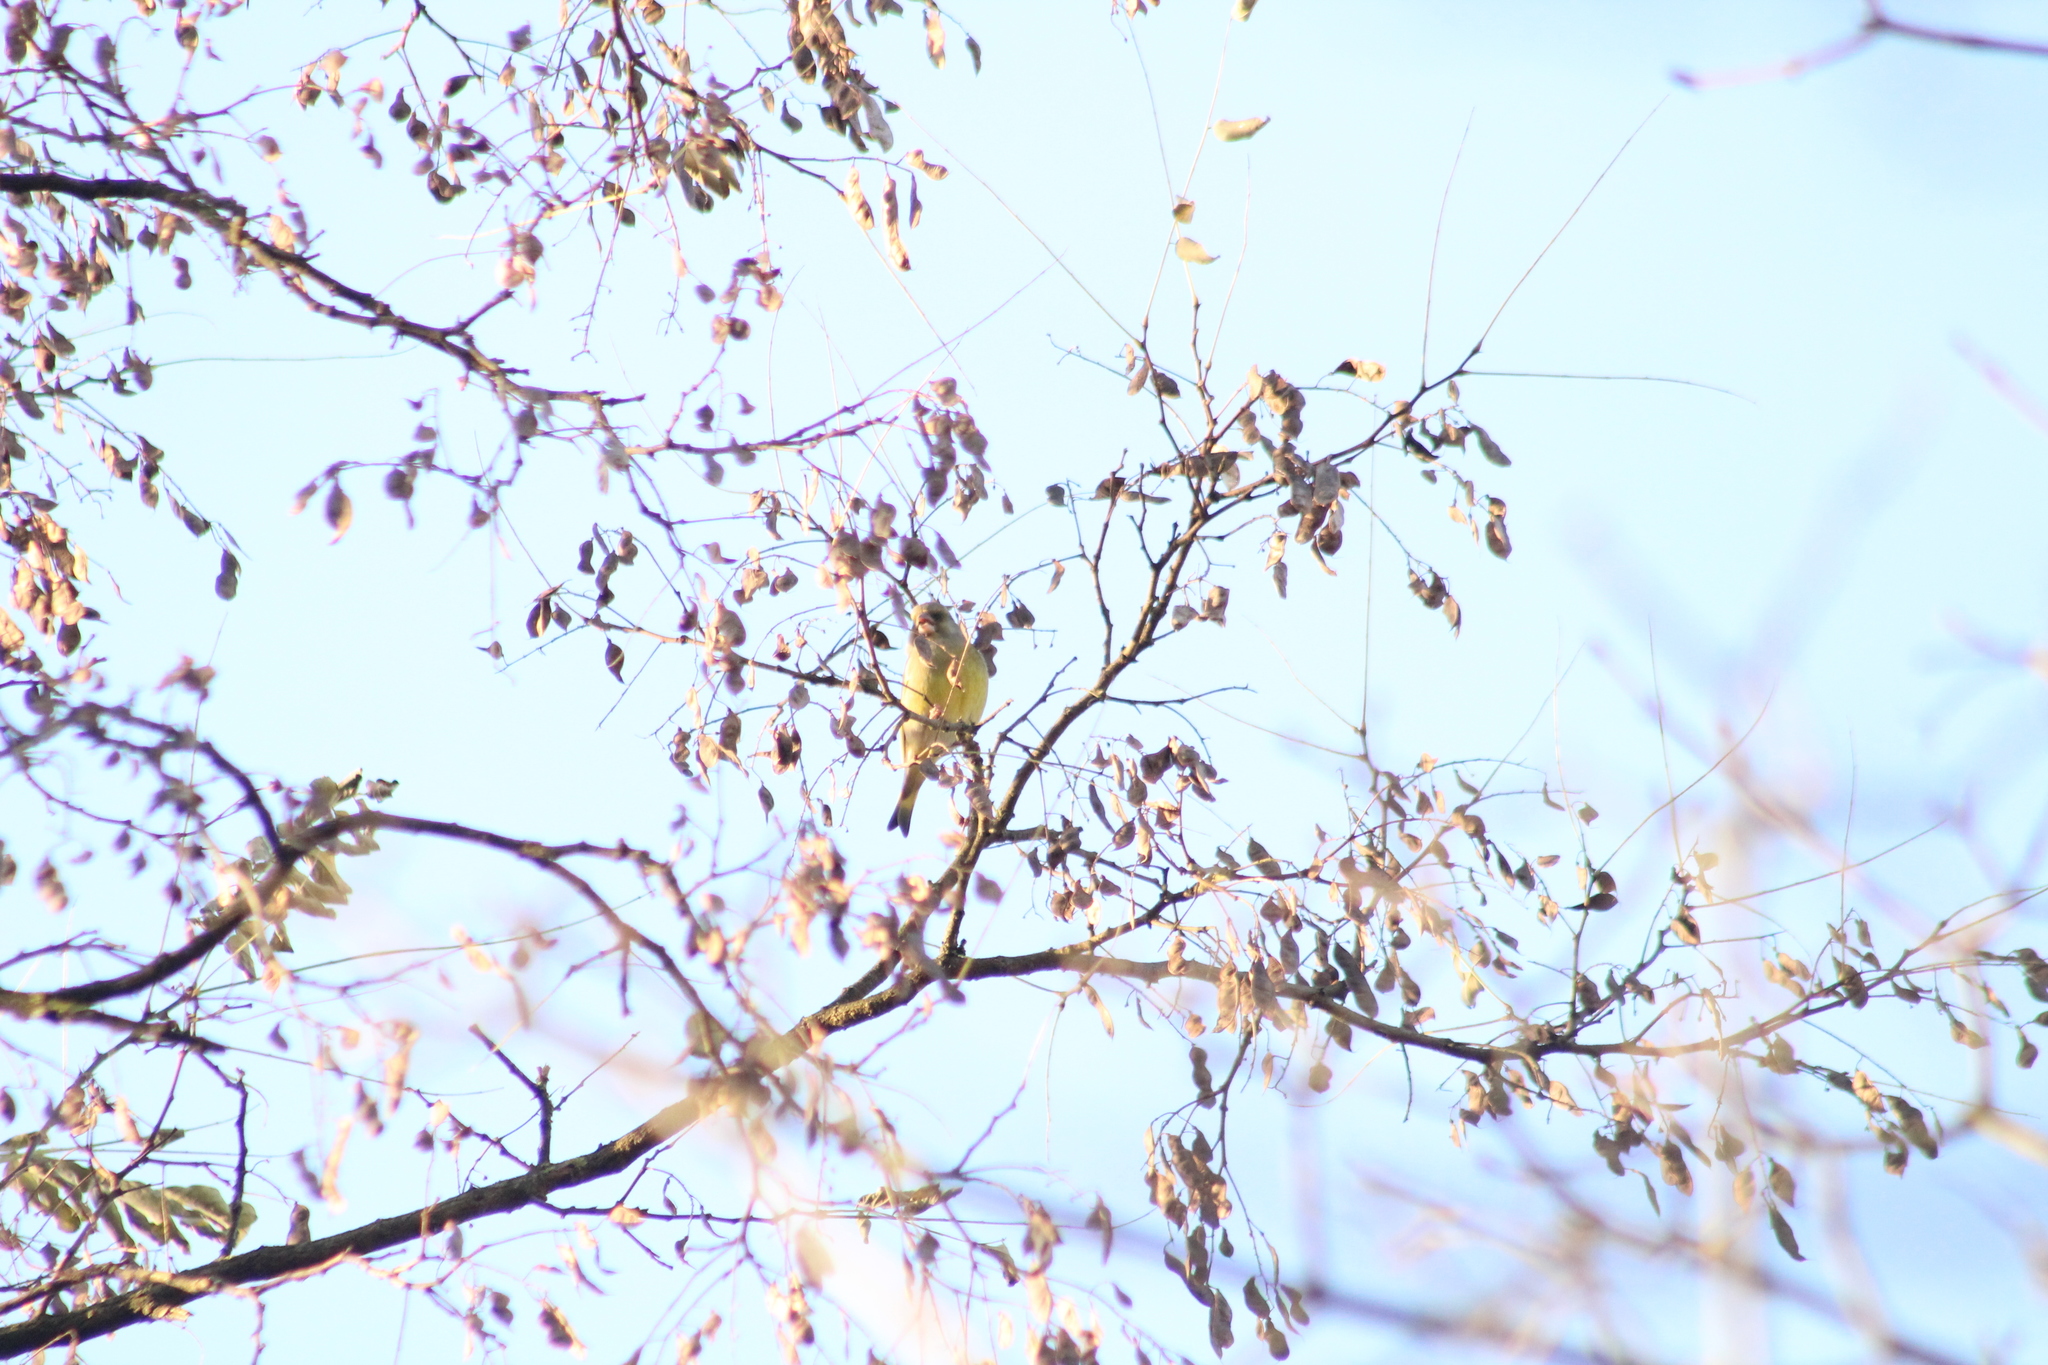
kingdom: Plantae
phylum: Tracheophyta
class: Liliopsida
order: Poales
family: Poaceae
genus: Chloris
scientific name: Chloris chloris
